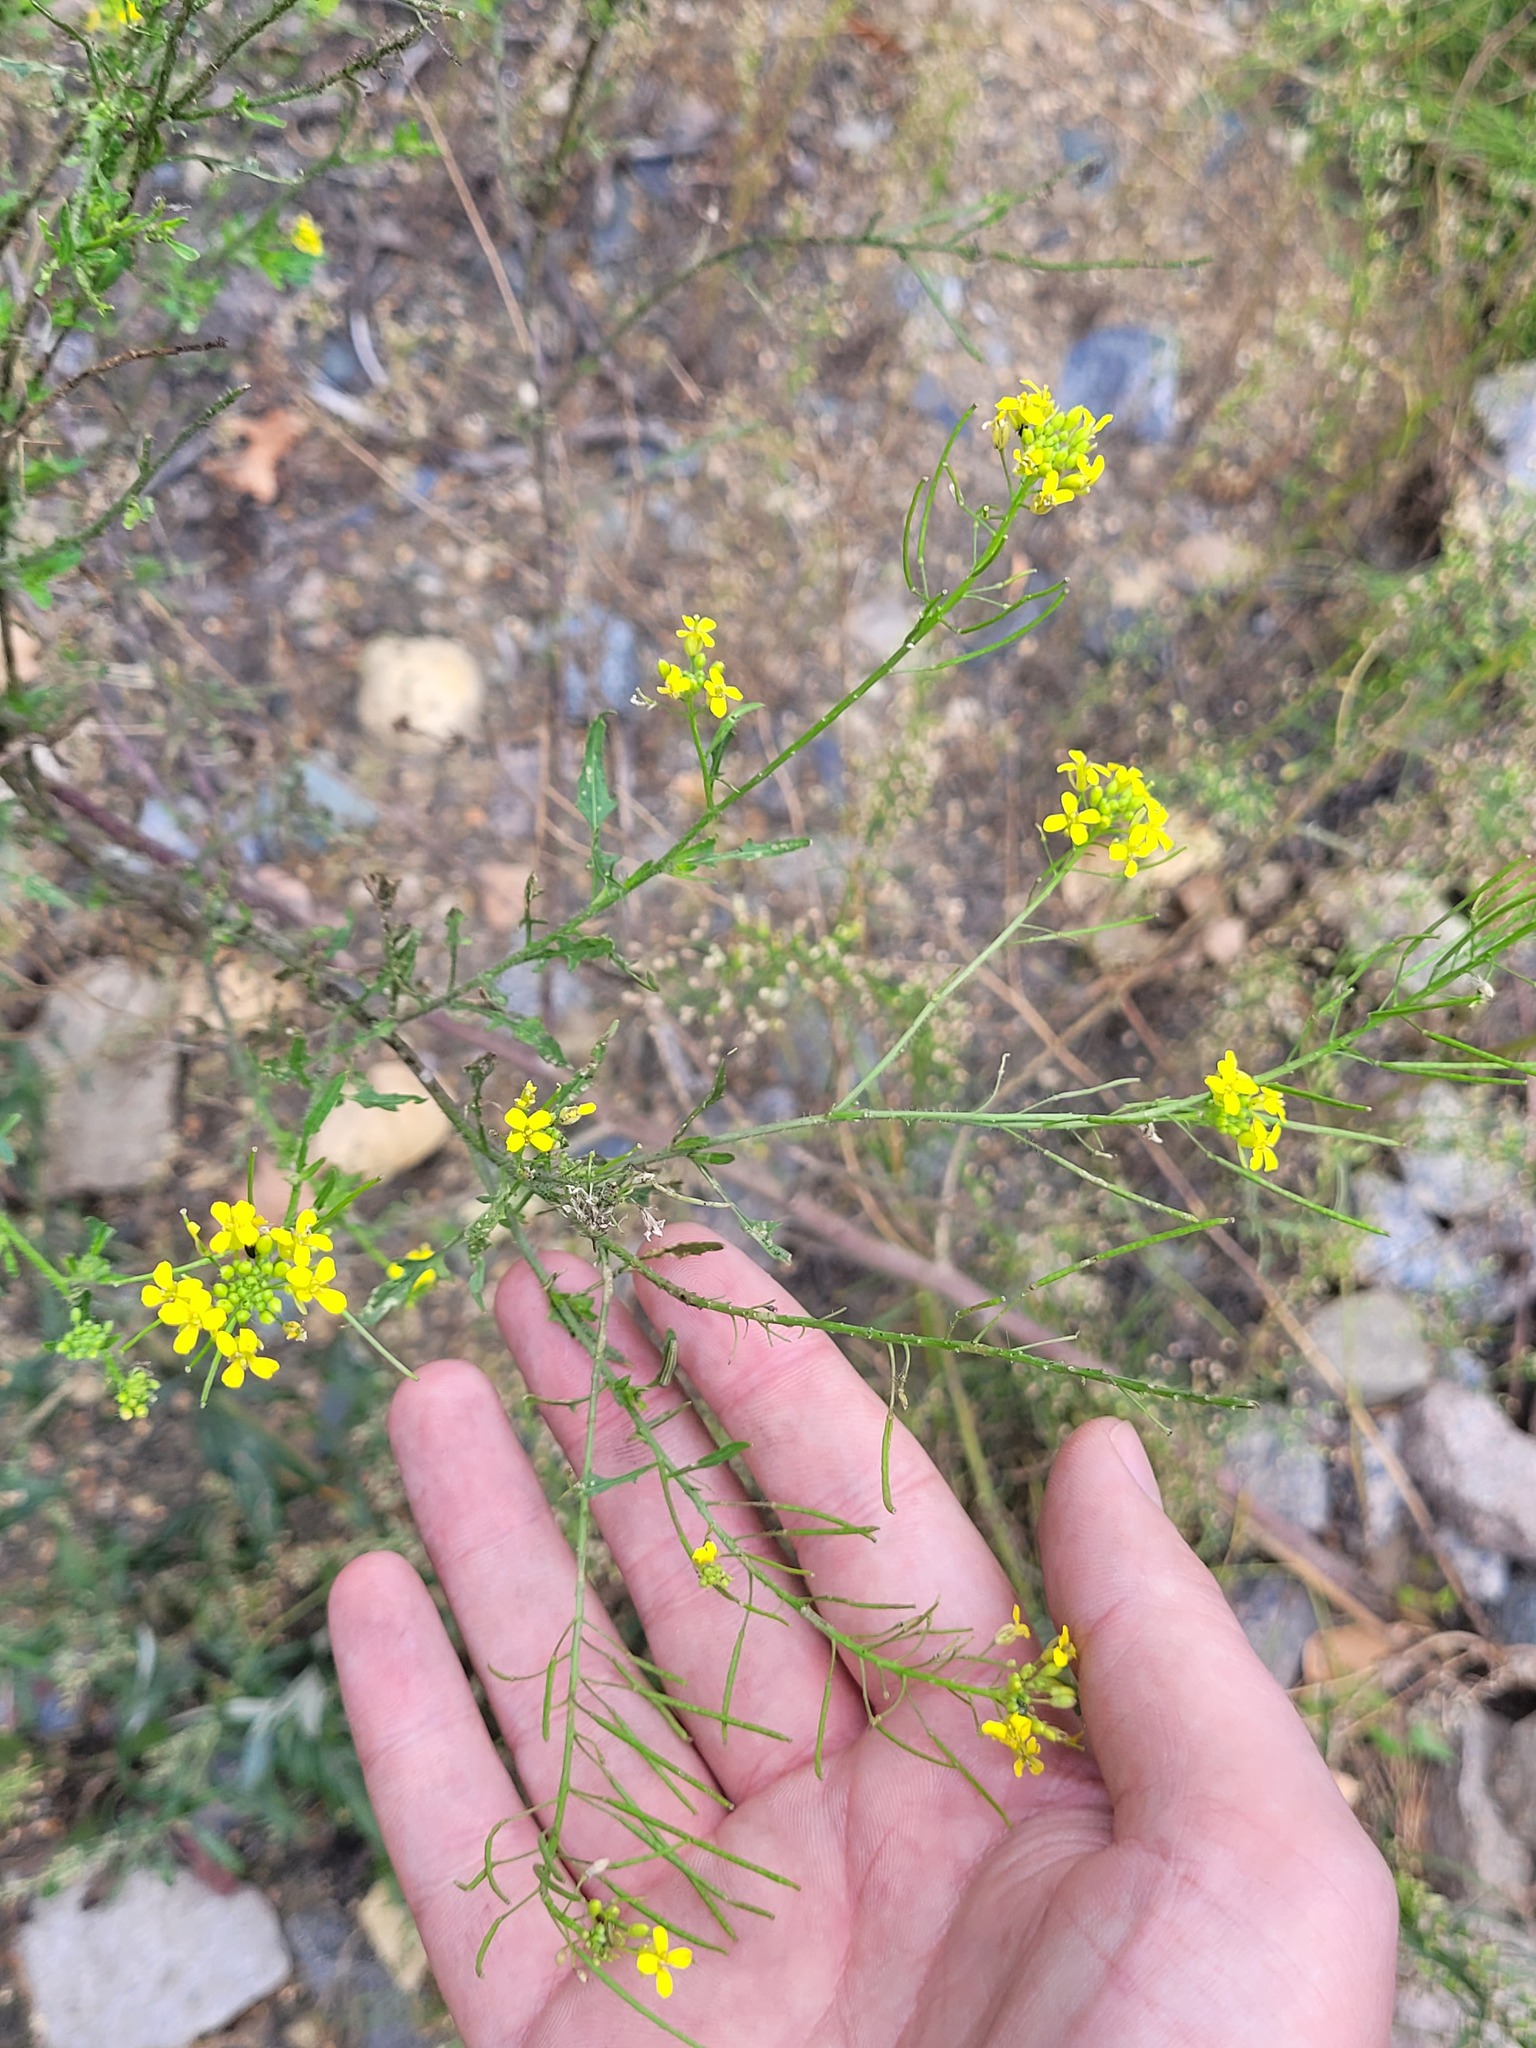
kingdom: Plantae
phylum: Tracheophyta
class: Magnoliopsida
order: Brassicales
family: Brassicaceae
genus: Sisymbrium
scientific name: Sisymbrium loeselii
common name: False london-rocket
